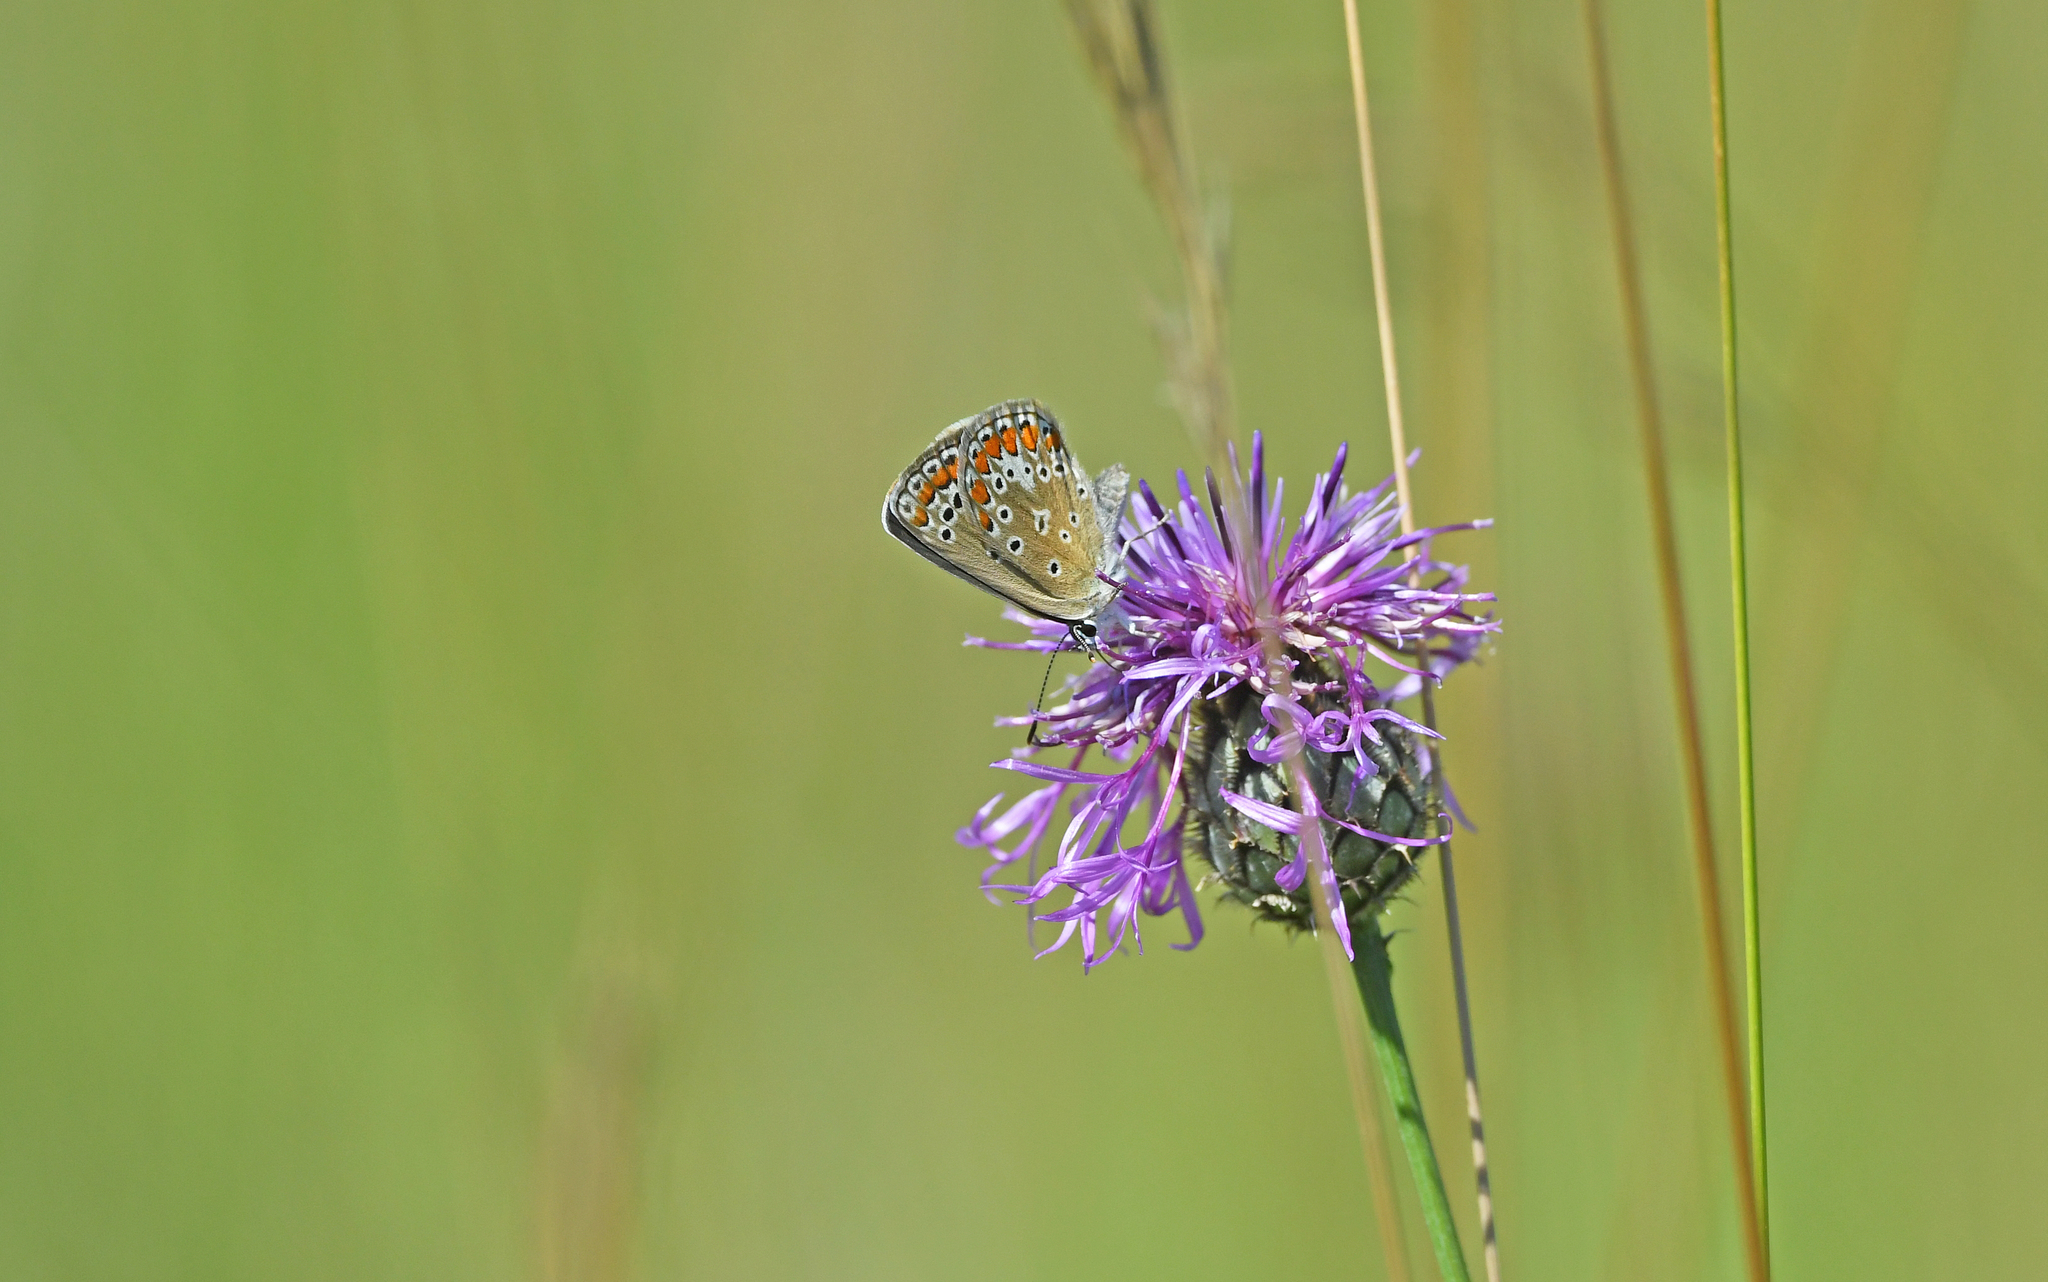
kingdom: Animalia
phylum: Arthropoda
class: Insecta
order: Lepidoptera
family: Lycaenidae
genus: Polyommatus
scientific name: Polyommatus icarus
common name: Common blue
